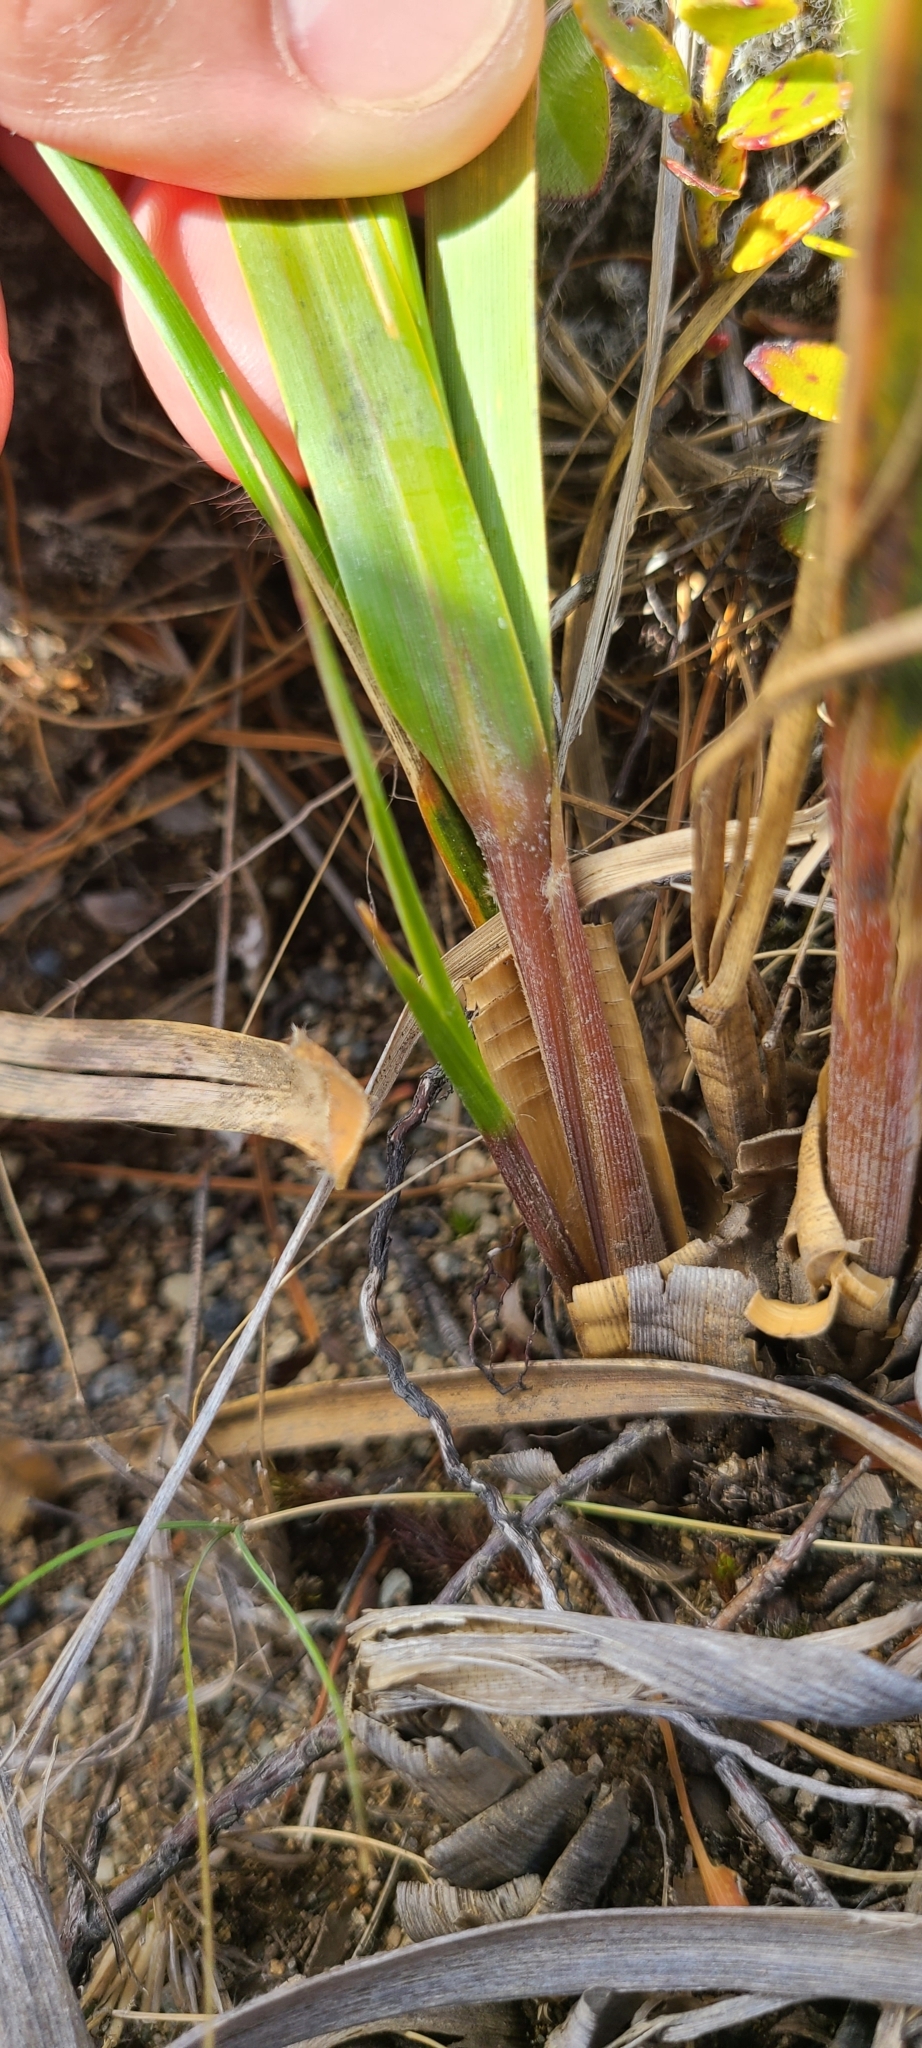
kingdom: Plantae
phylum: Tracheophyta
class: Liliopsida
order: Poales
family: Poaceae
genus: Chionochloa
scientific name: Chionochloa flavescens
